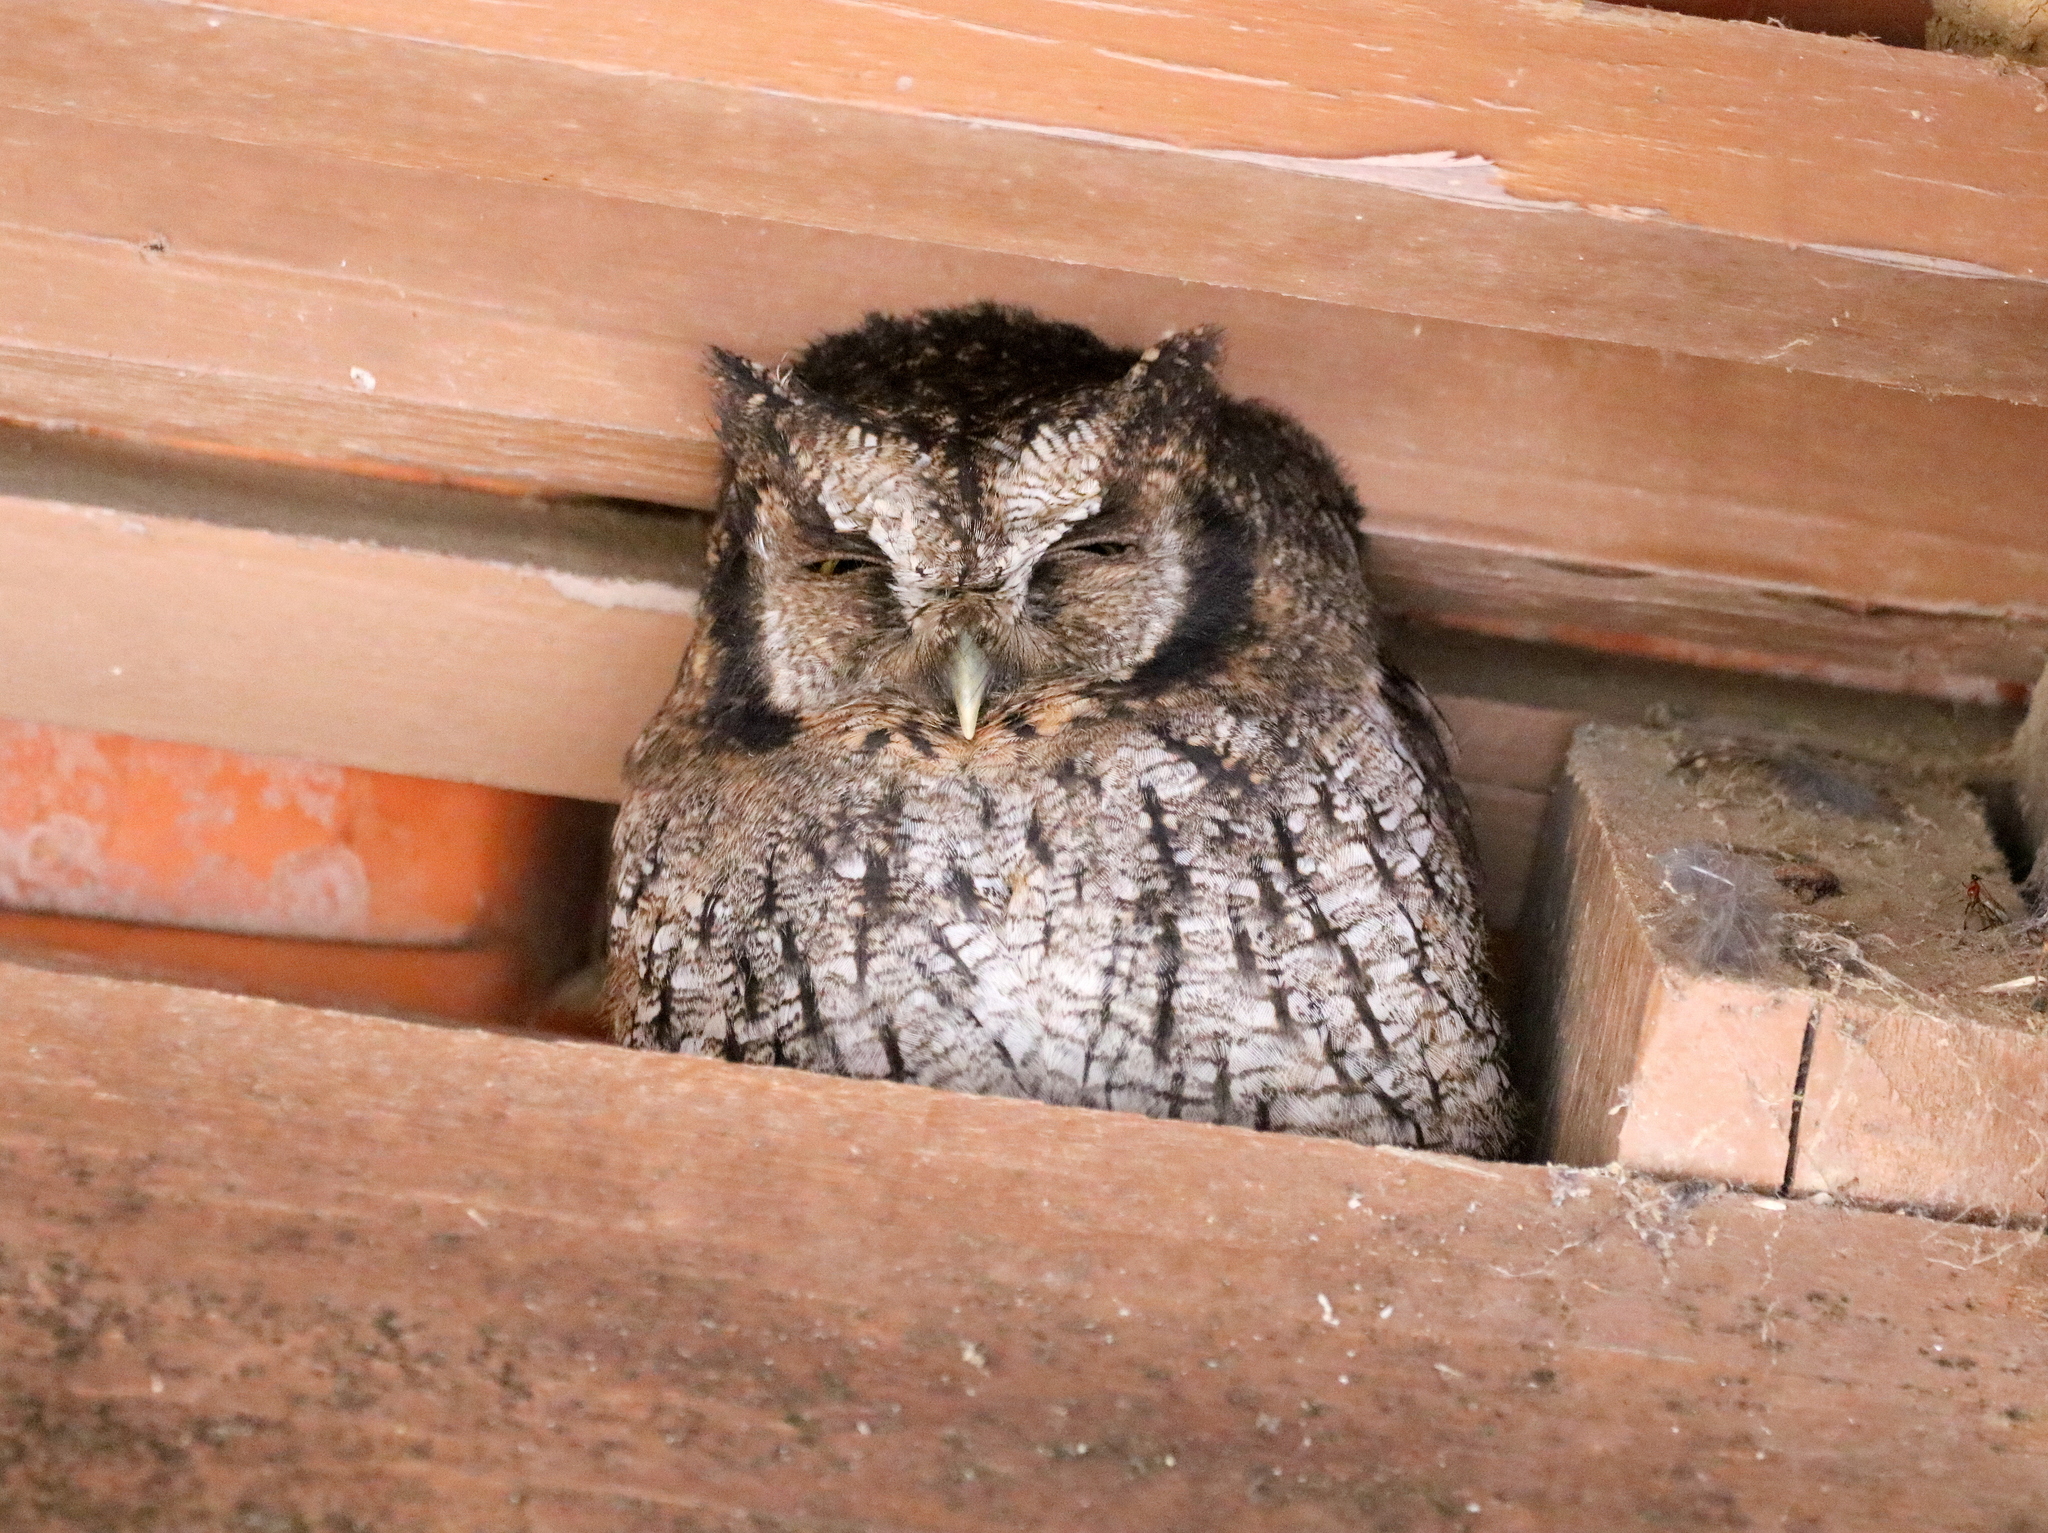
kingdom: Animalia
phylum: Chordata
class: Aves
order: Strigiformes
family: Strigidae
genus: Megascops
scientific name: Megascops atricapilla
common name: Black-capped screech owl
